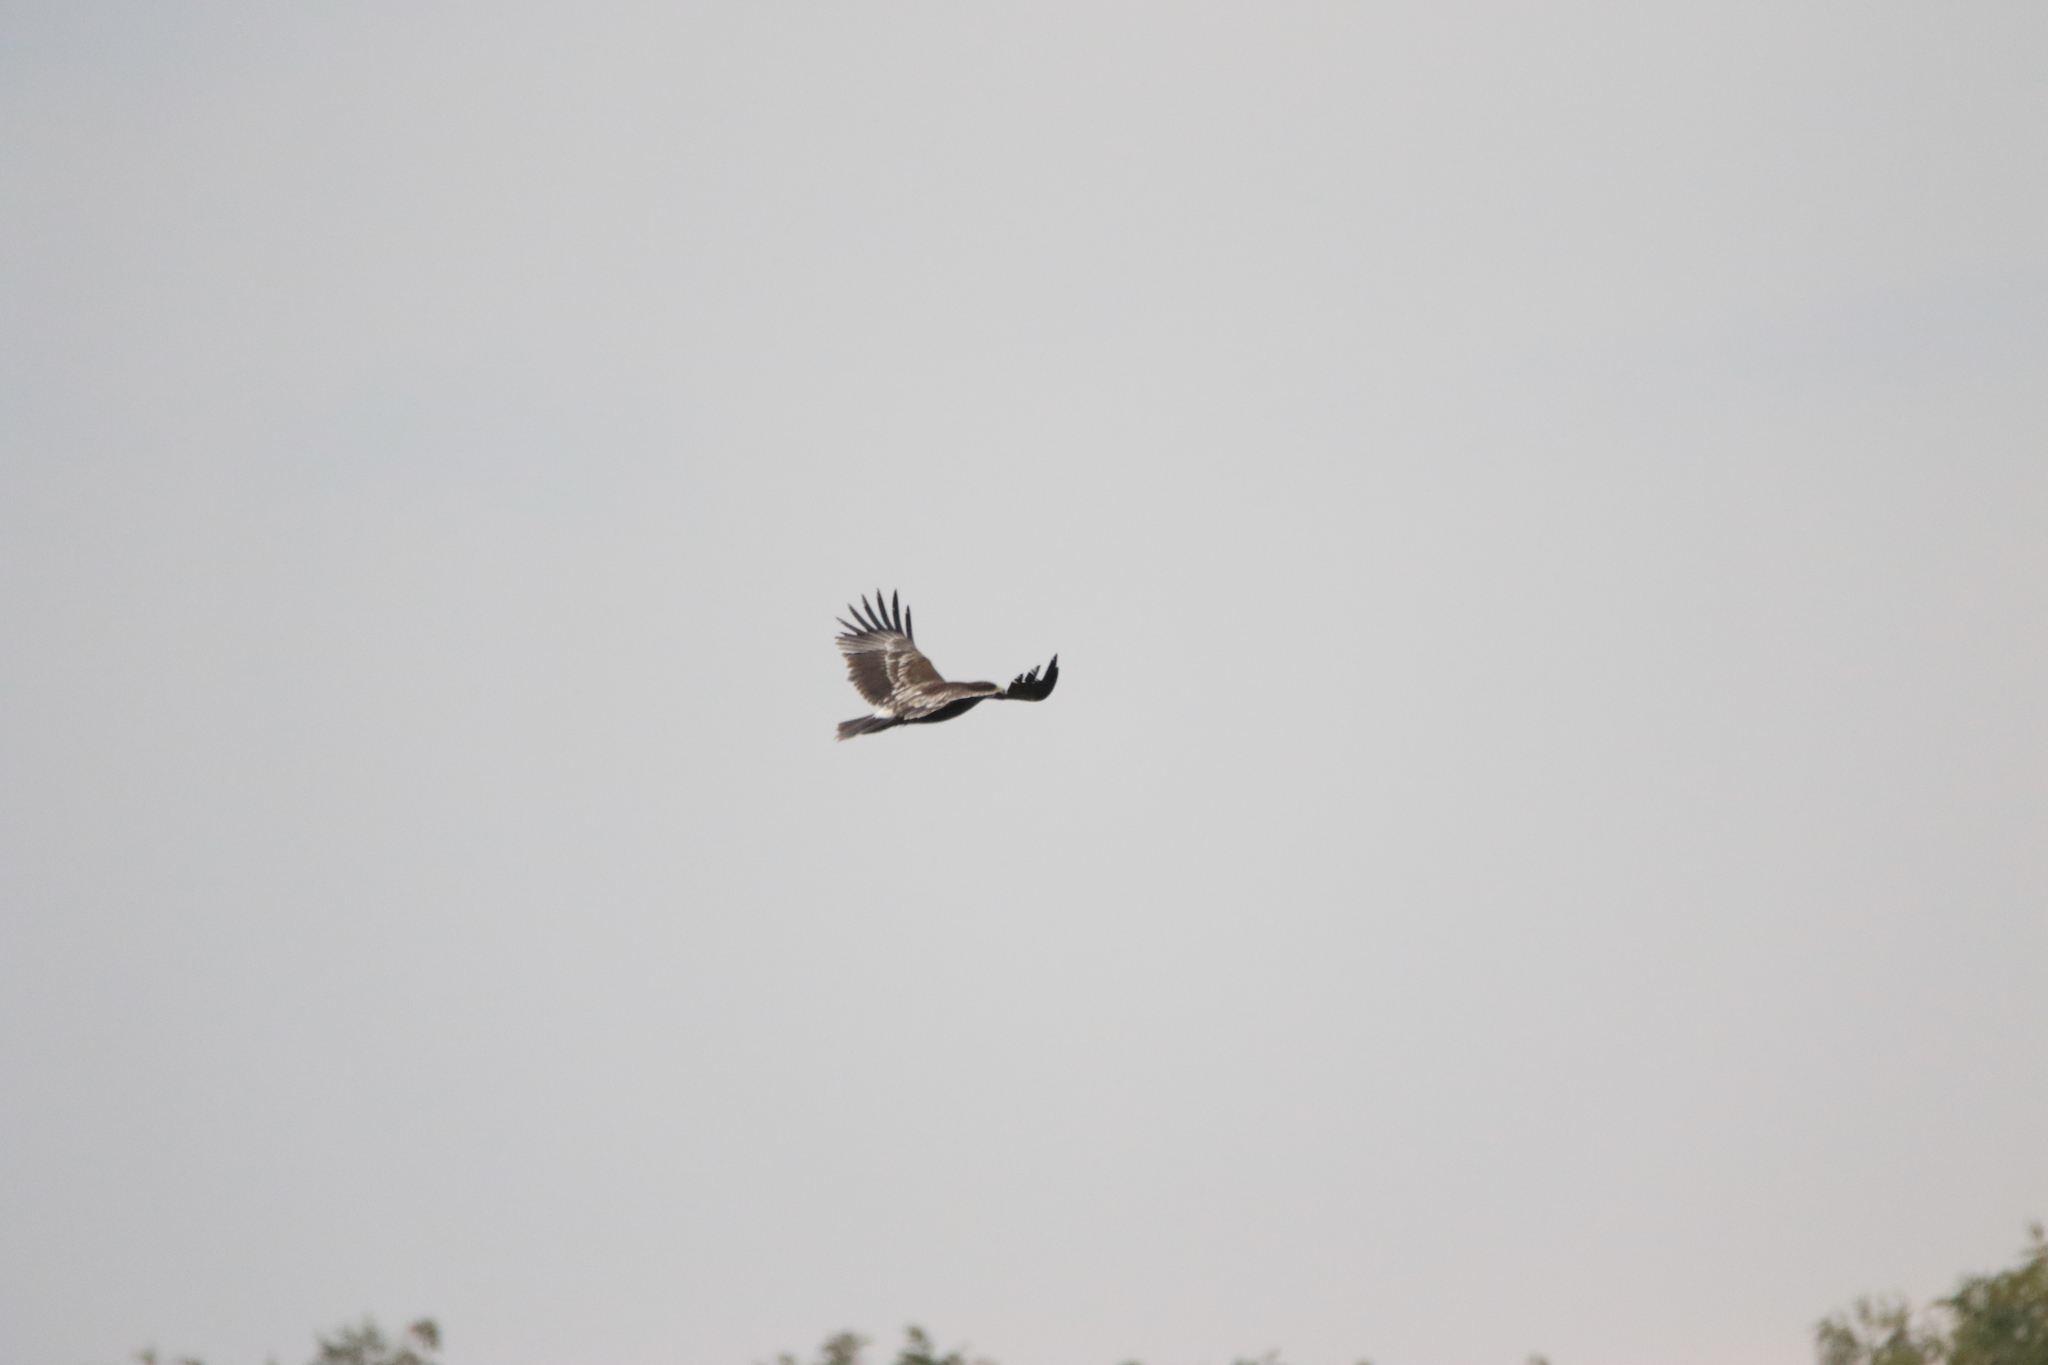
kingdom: Animalia
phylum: Chordata
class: Aves
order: Accipitriformes
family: Accipitridae
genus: Aquila
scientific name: Aquila clanga
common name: Greater spotted eagle
